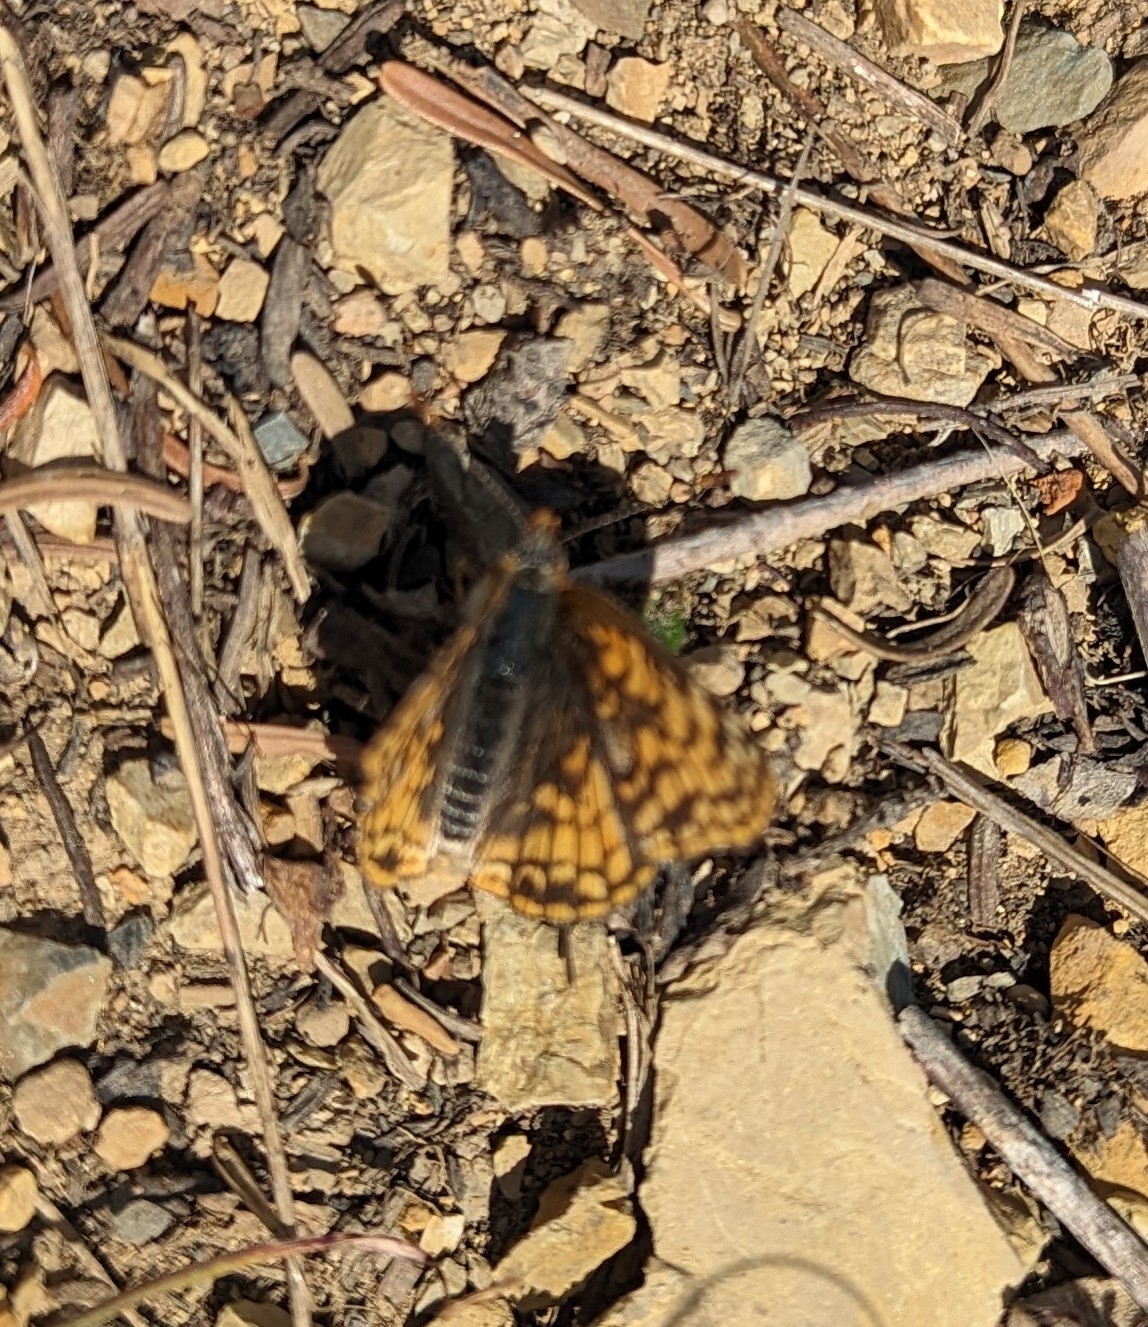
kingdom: Animalia
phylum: Arthropoda
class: Insecta
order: Lepidoptera
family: Nymphalidae
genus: Chlosyne
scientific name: Chlosyne palla
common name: Northern checkerspot
